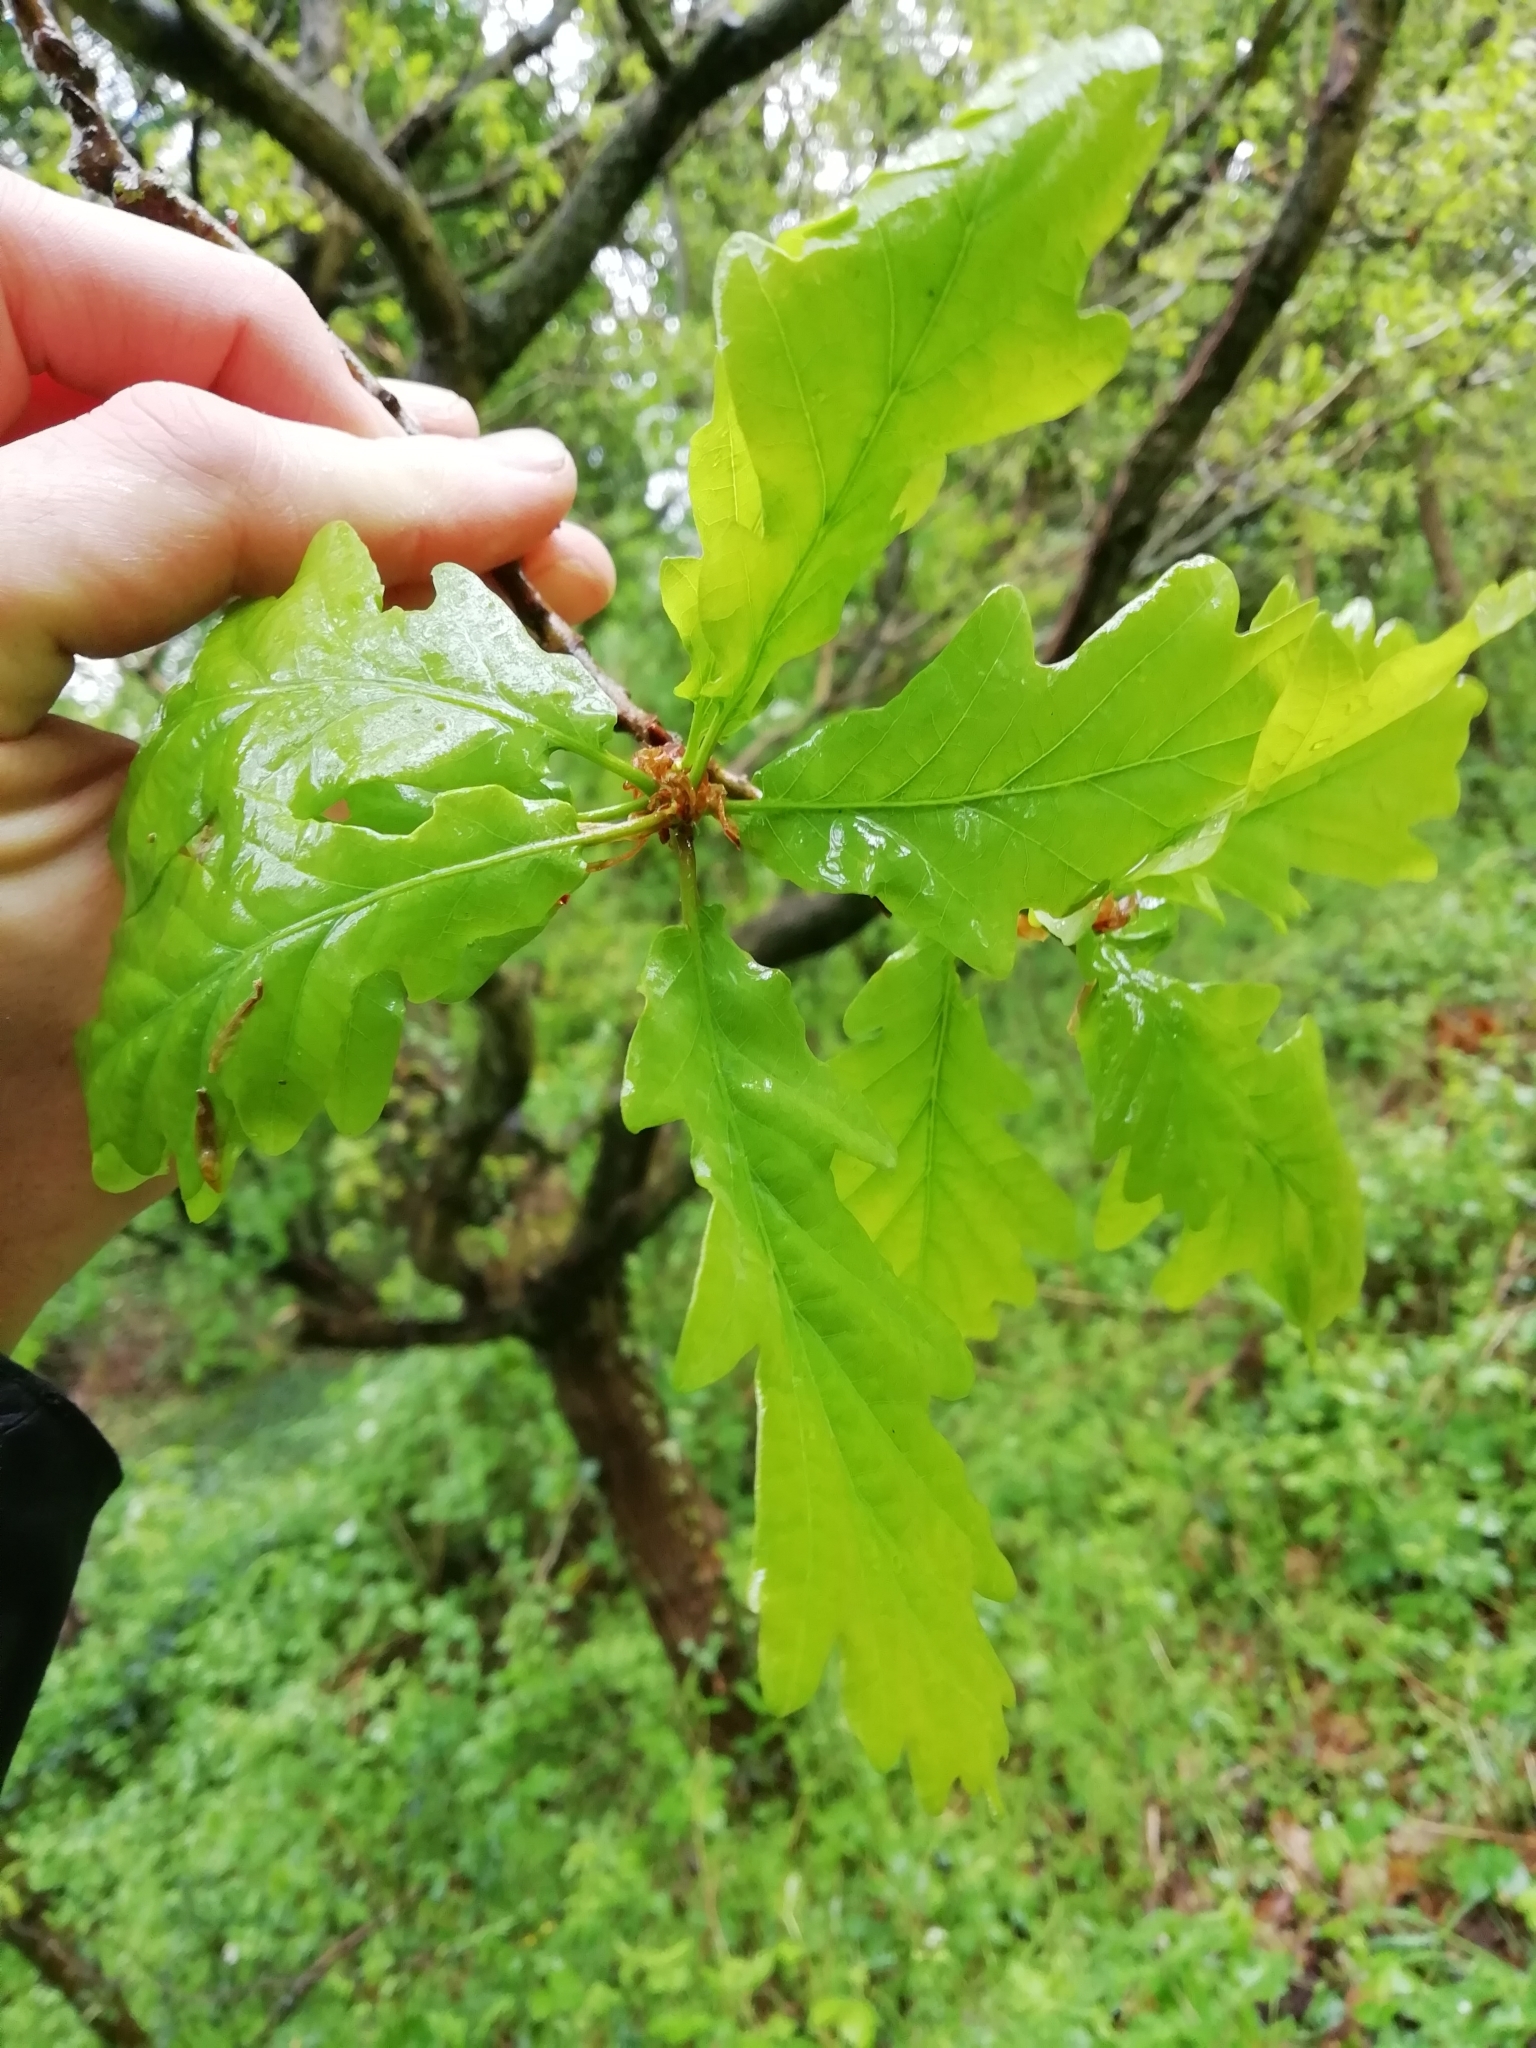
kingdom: Plantae
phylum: Tracheophyta
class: Magnoliopsida
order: Fagales
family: Fagaceae
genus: Quercus
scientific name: Quercus robur
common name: Pedunculate oak
